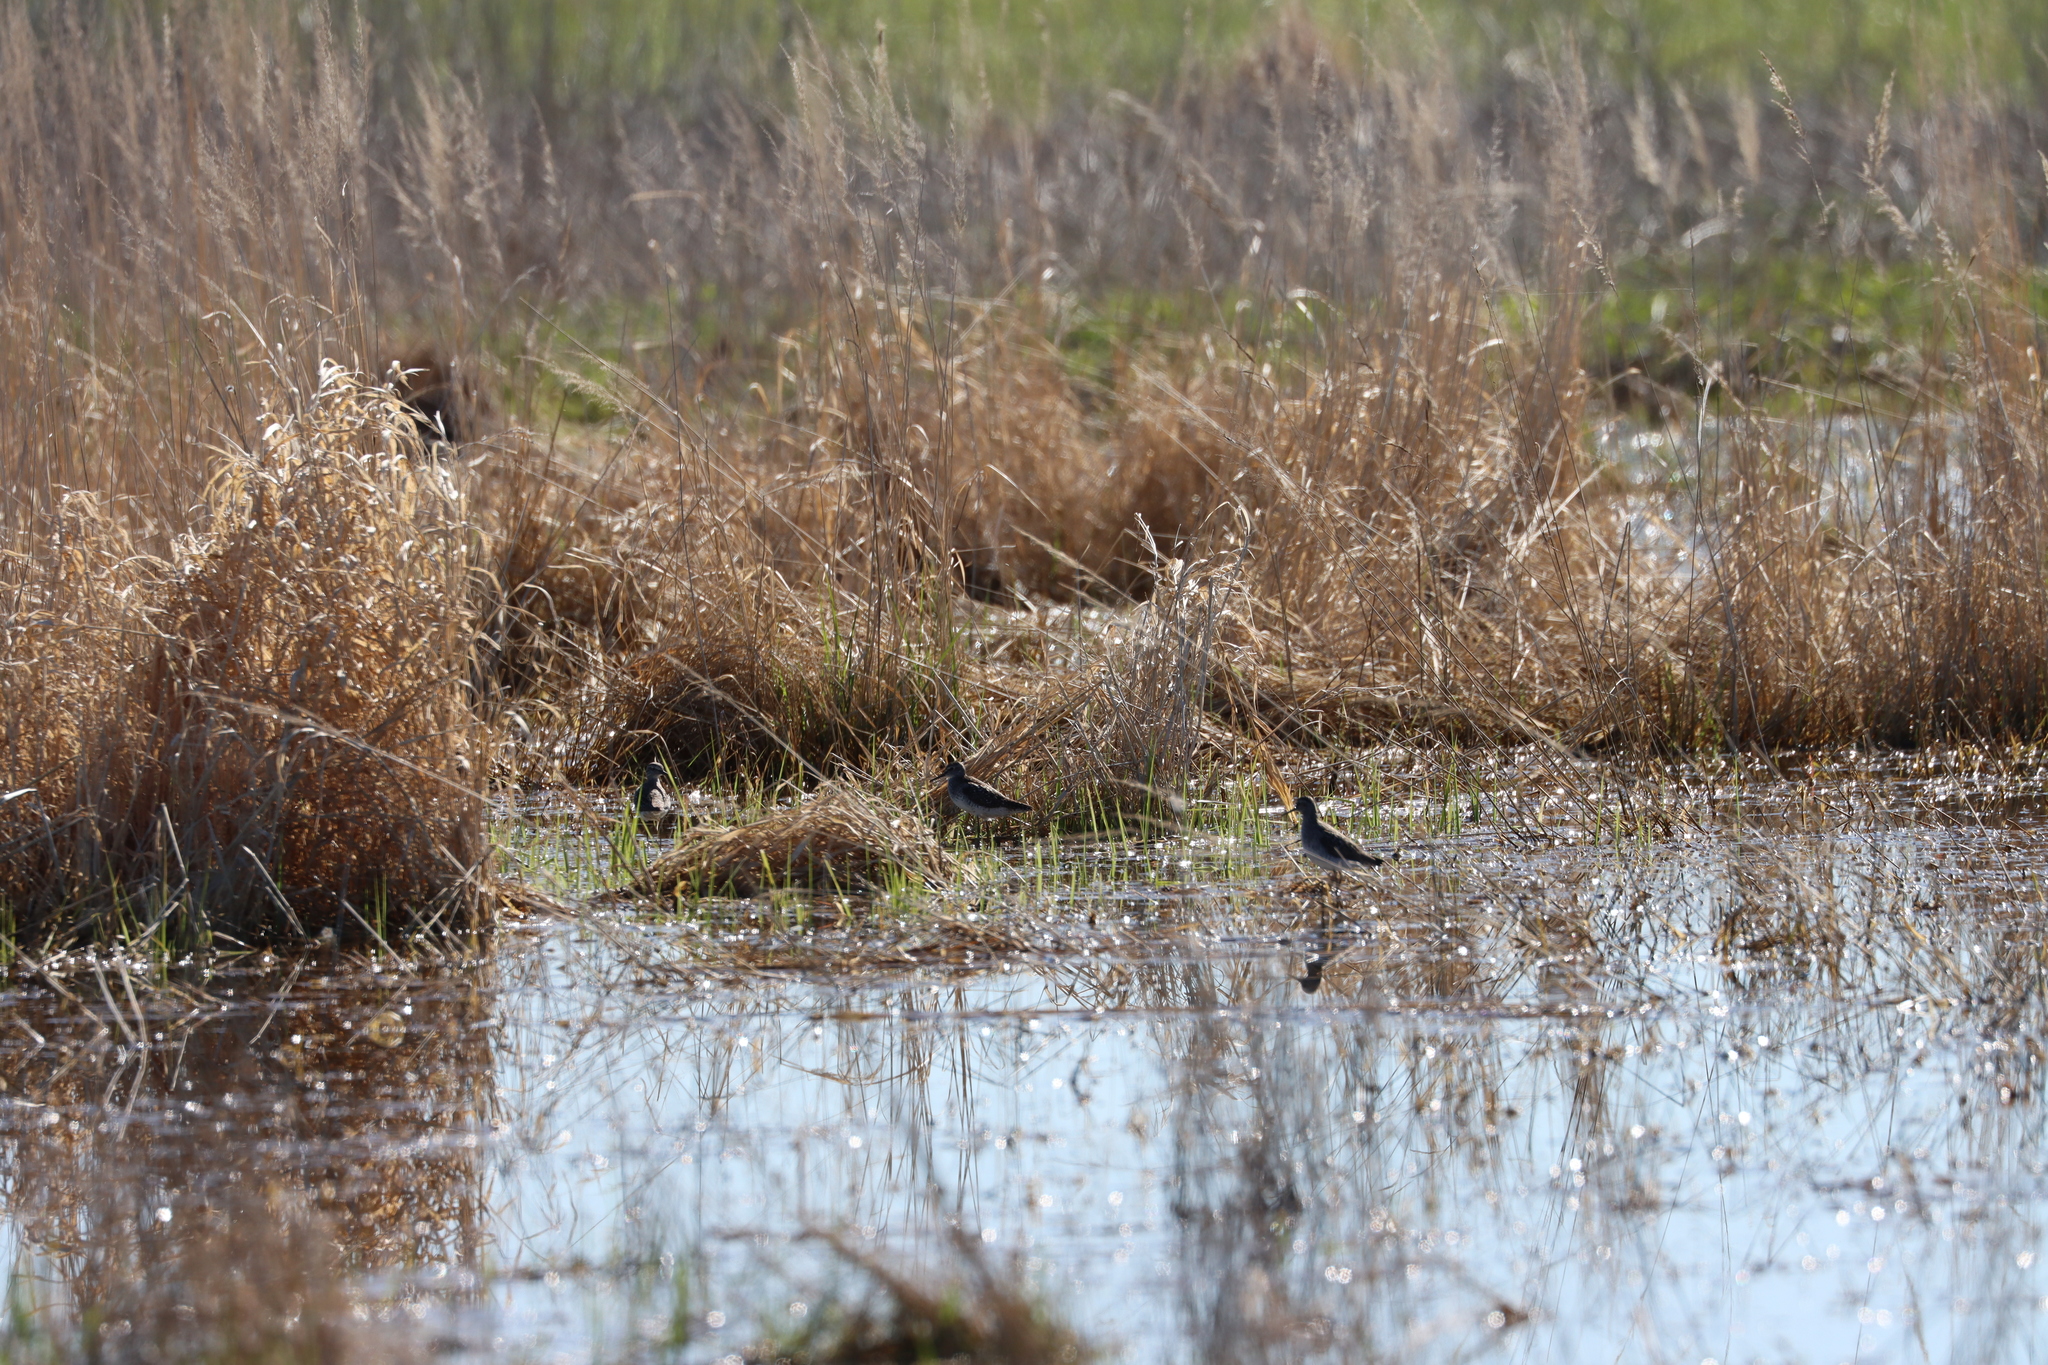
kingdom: Animalia
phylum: Chordata
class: Aves
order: Charadriiformes
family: Scolopacidae
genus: Tringa
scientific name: Tringa glareola
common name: Wood sandpiper
